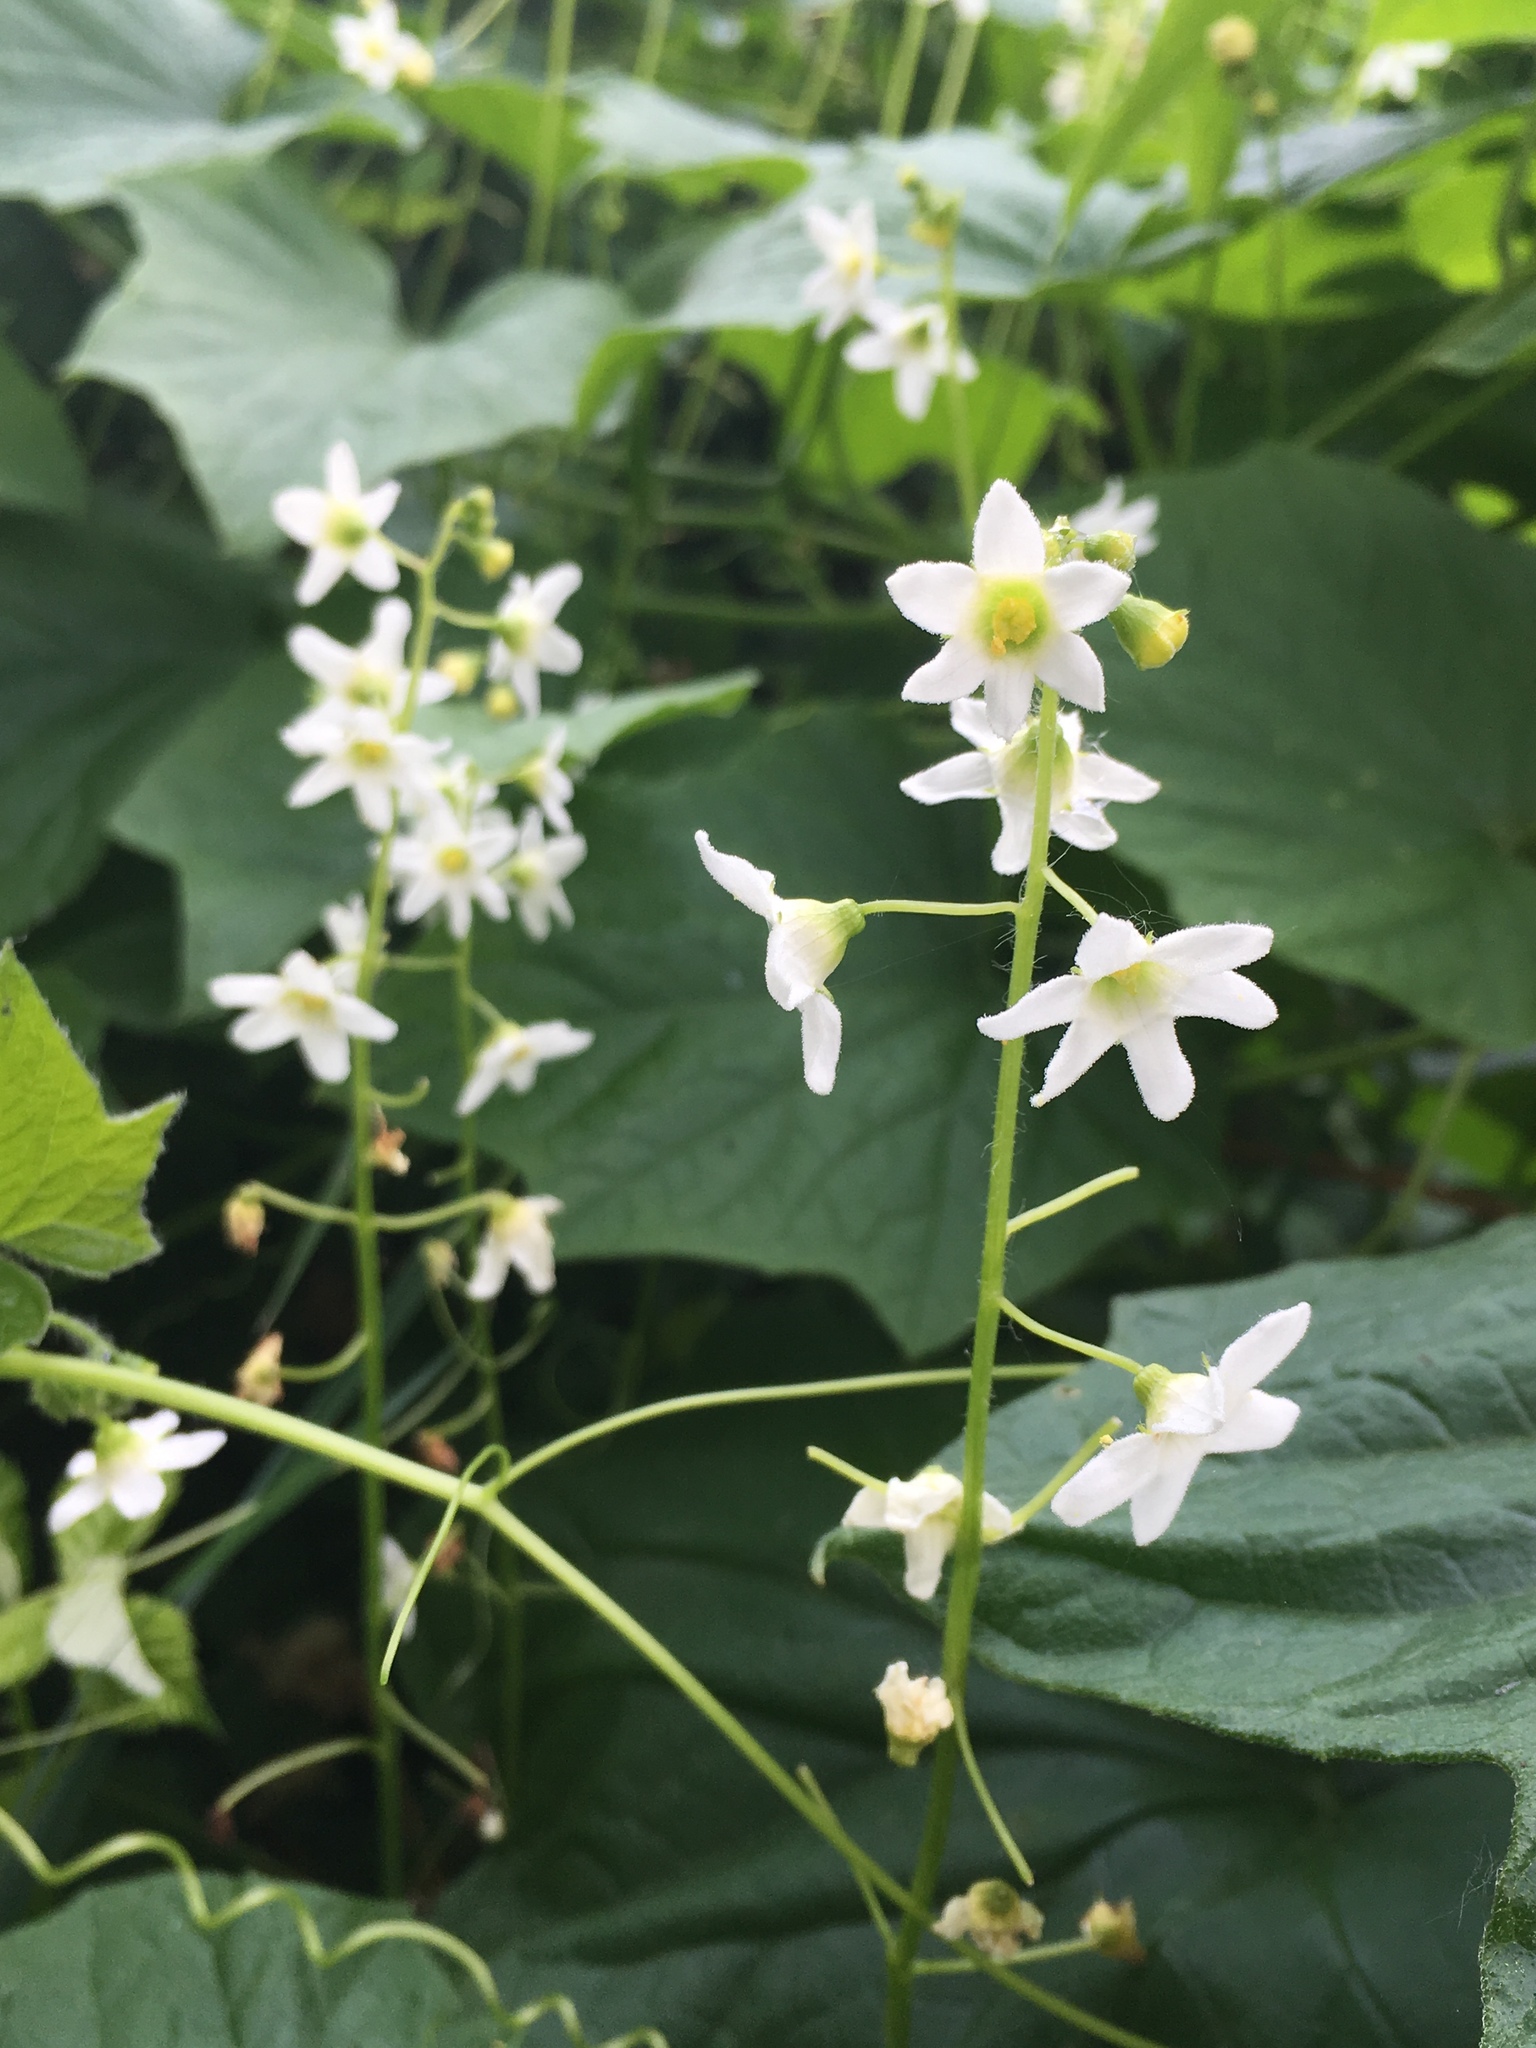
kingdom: Plantae
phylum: Tracheophyta
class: Magnoliopsida
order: Cucurbitales
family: Cucurbitaceae
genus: Marah
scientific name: Marah oregana
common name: Coastal manroot
